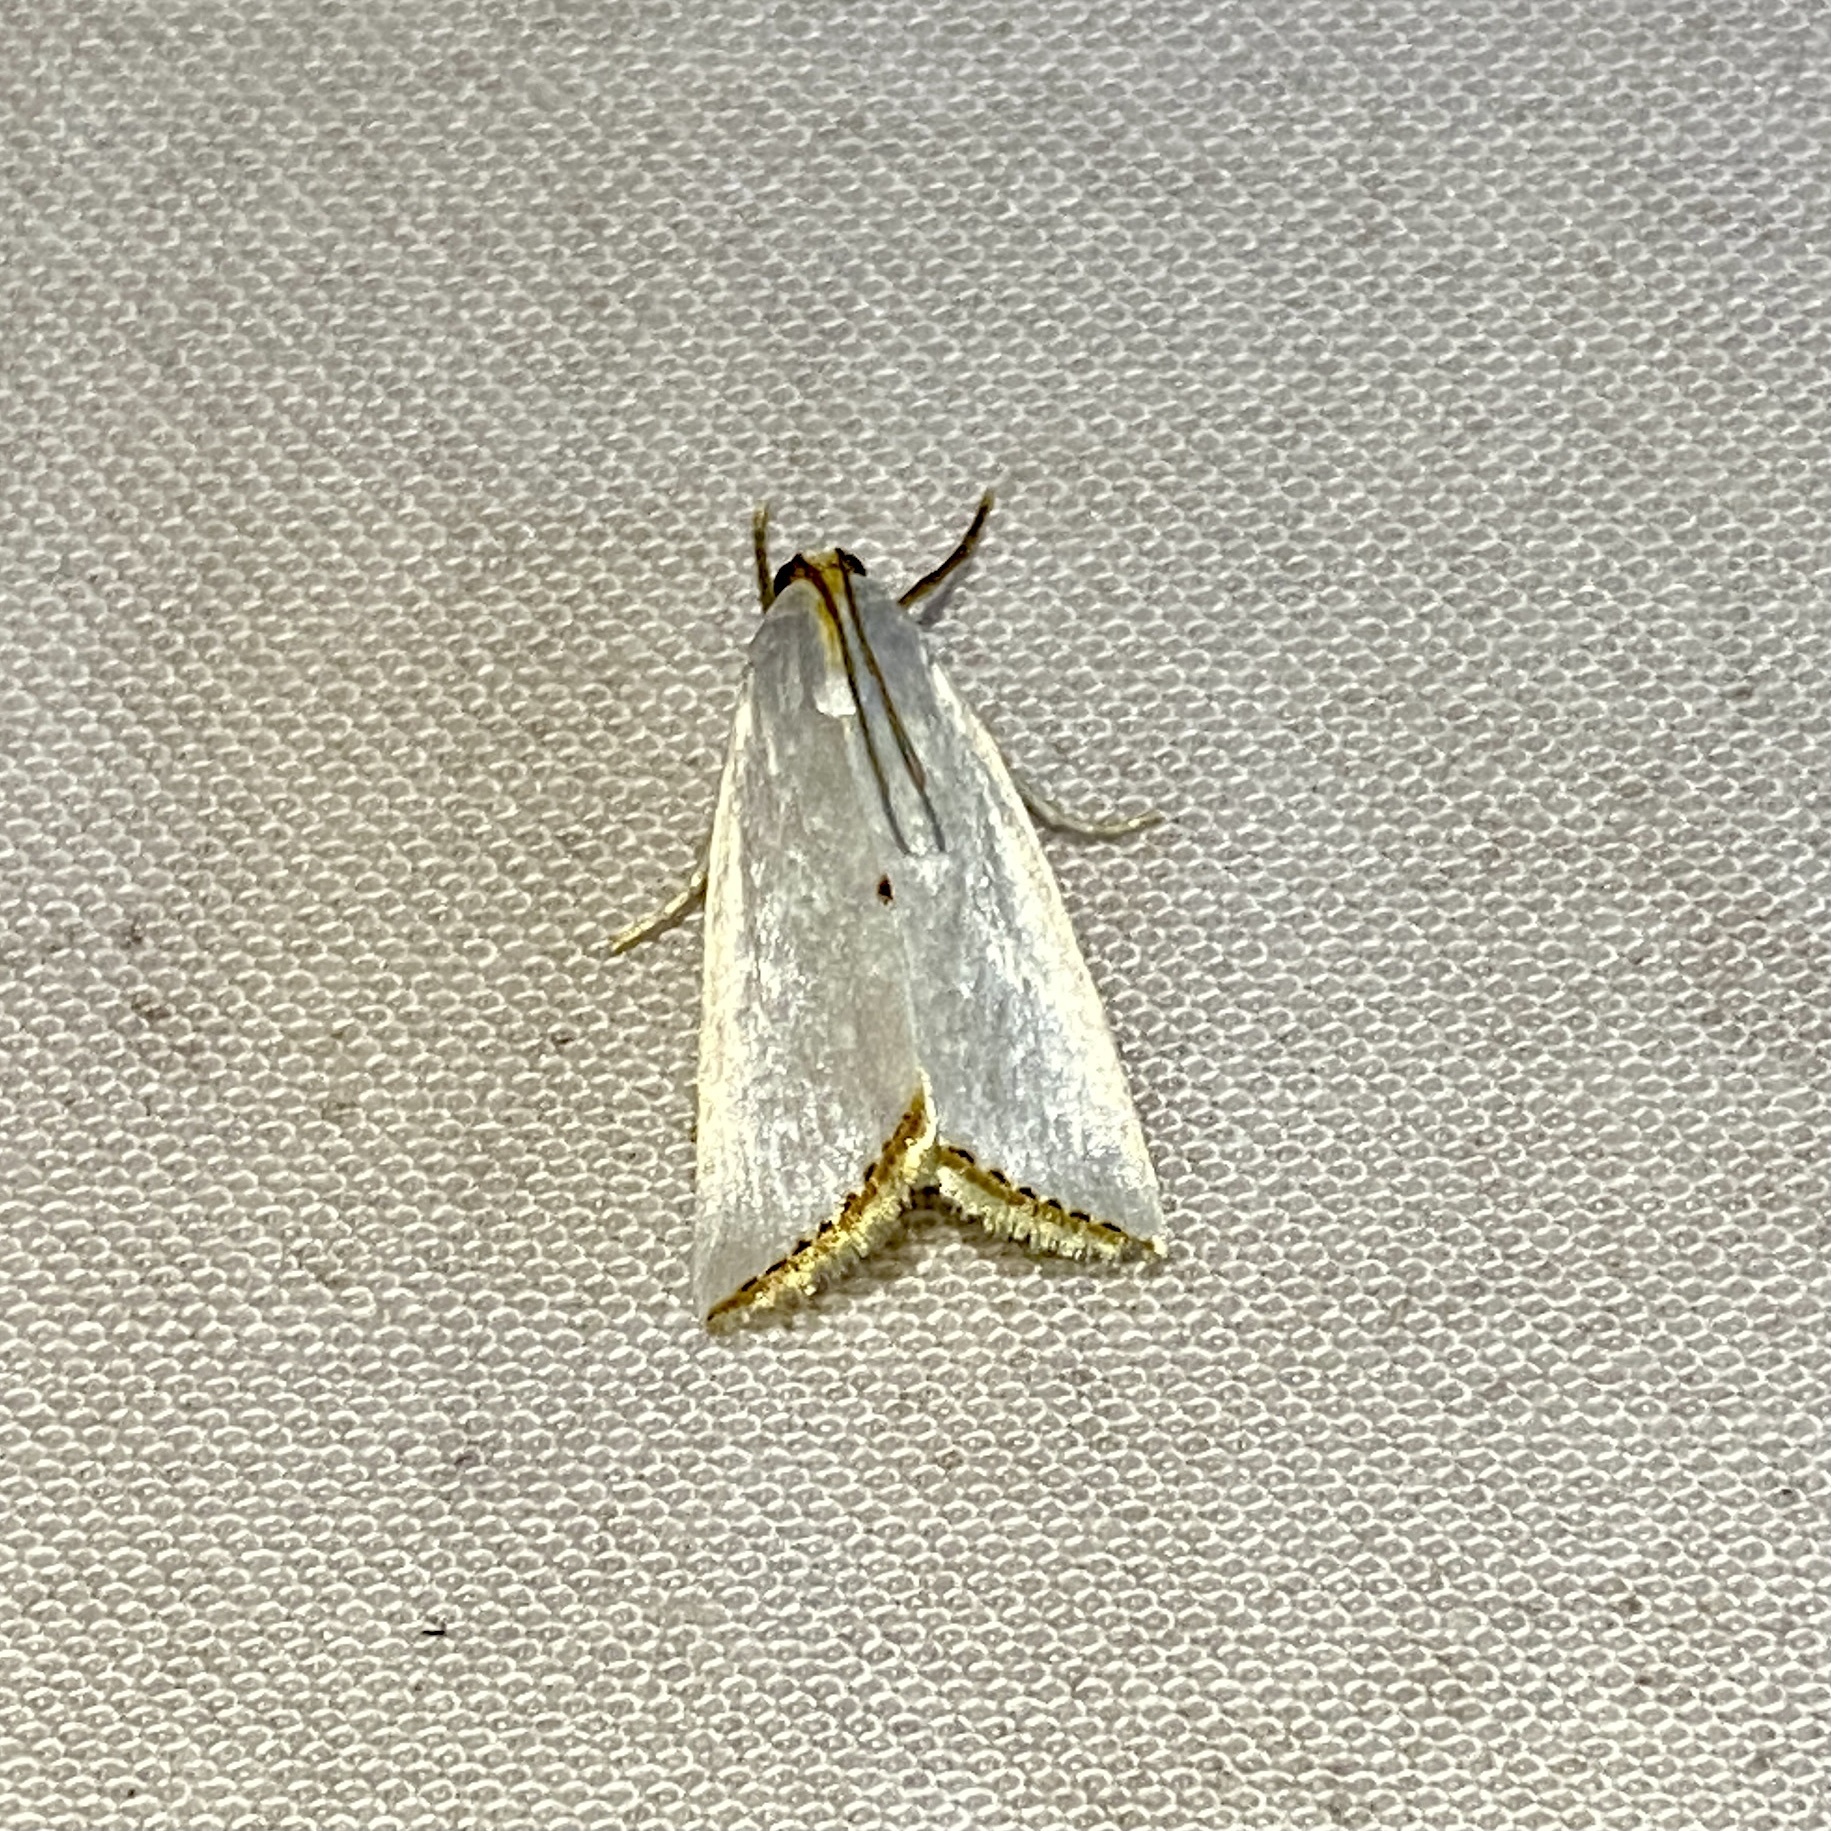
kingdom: Animalia
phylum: Arthropoda
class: Insecta
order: Lepidoptera
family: Crambidae
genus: Argyria
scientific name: Argyria nivalis
